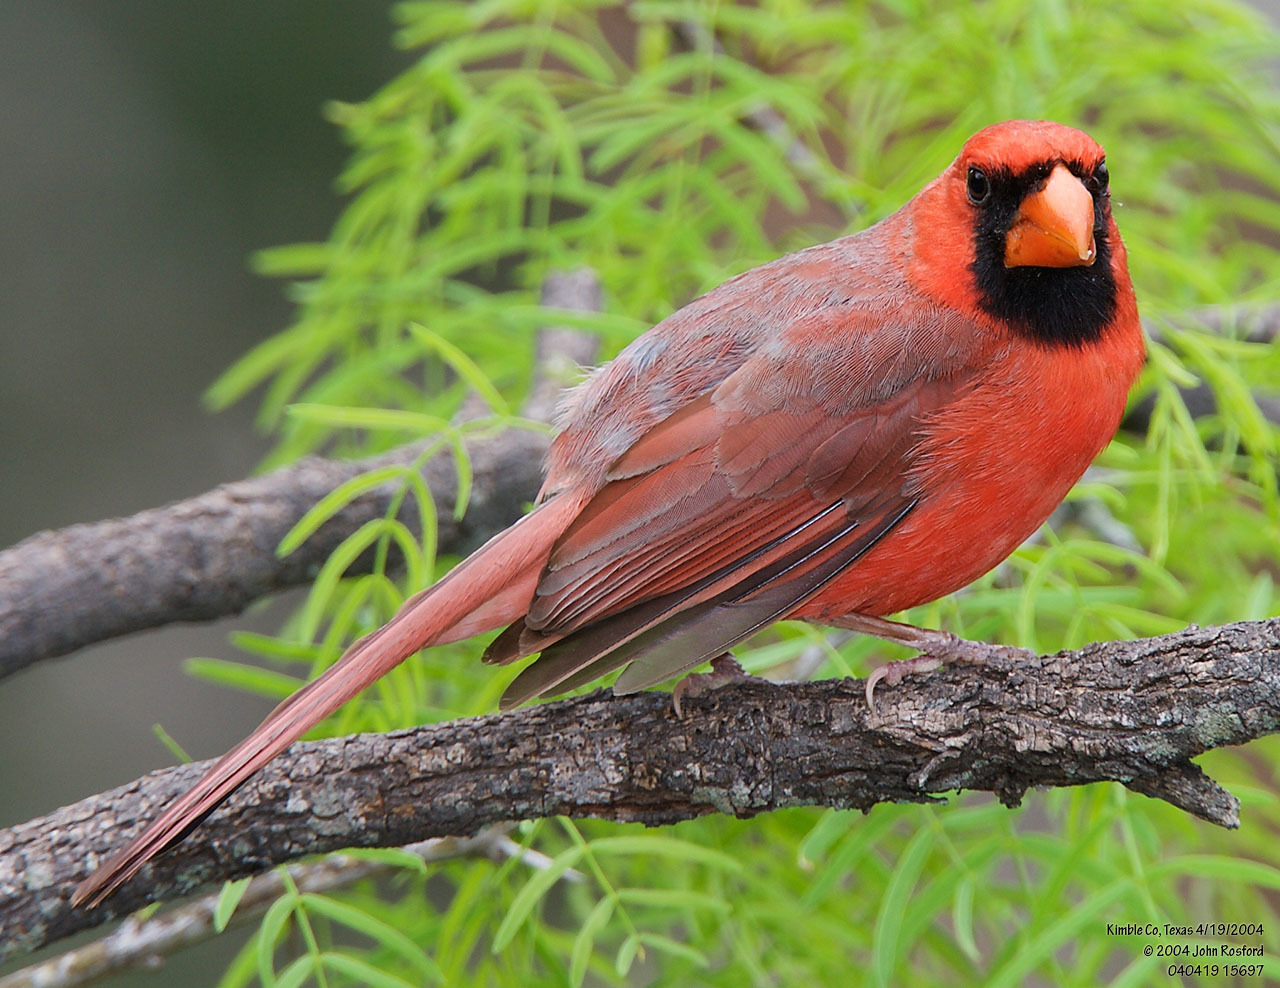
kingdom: Animalia
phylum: Chordata
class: Aves
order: Passeriformes
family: Cardinalidae
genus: Cardinalis
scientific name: Cardinalis cardinalis
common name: Northern cardinal
